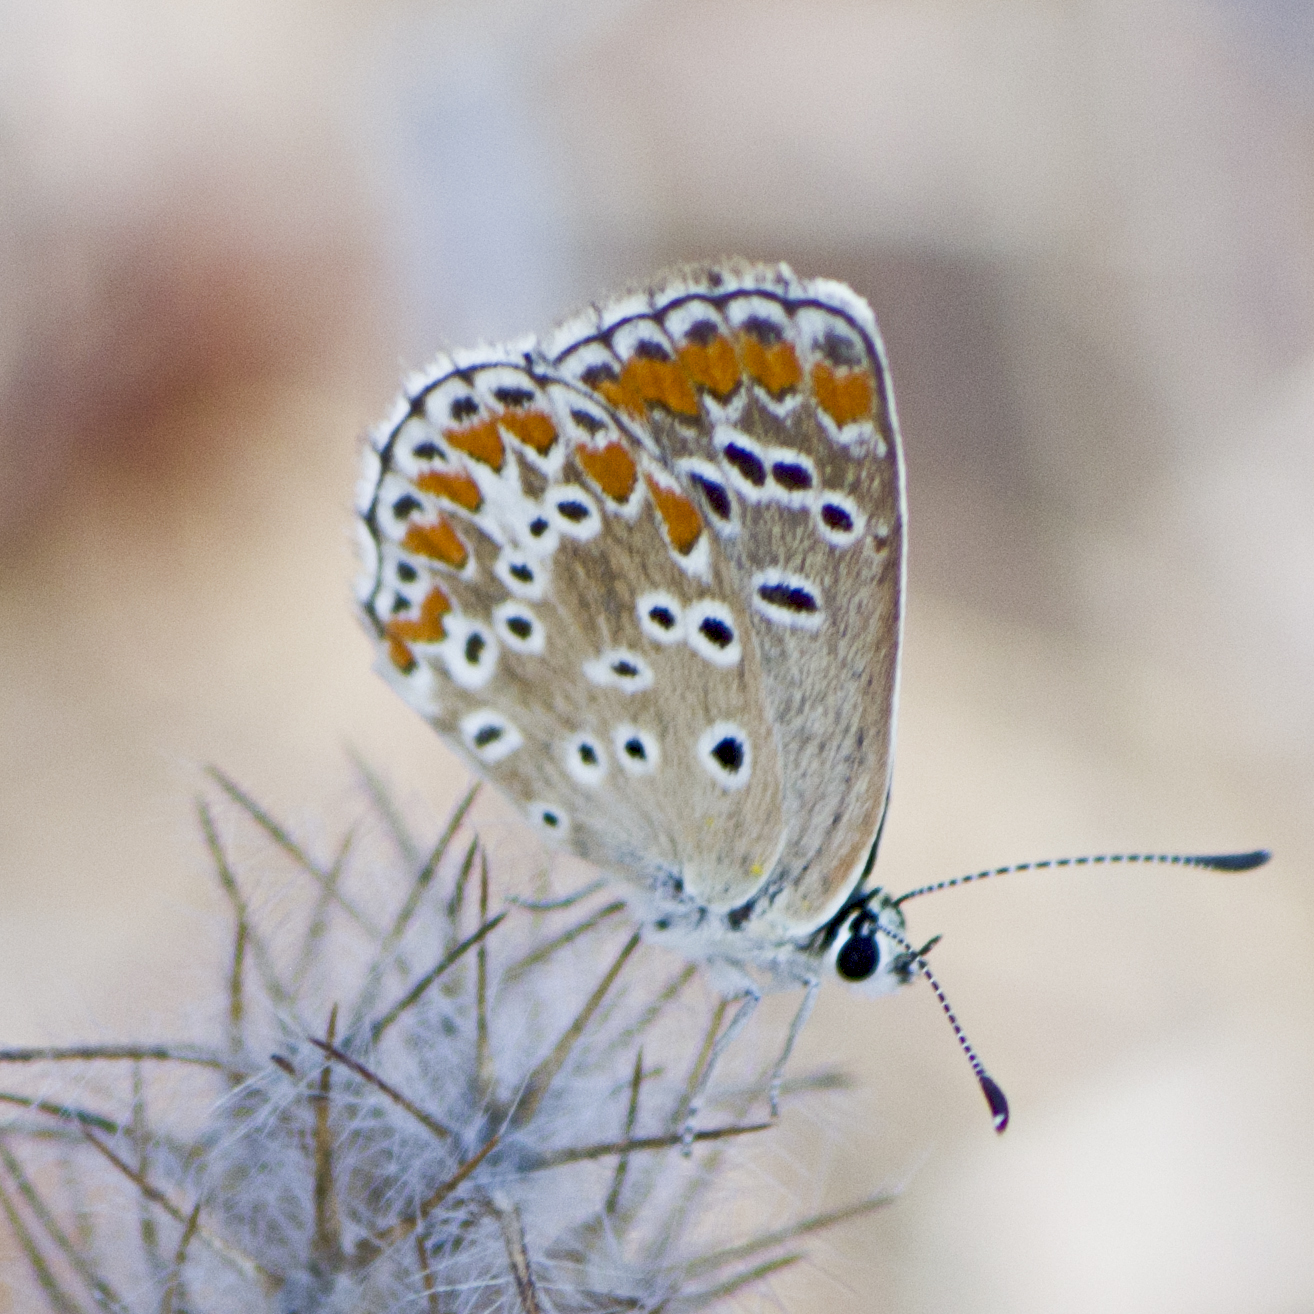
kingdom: Animalia
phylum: Arthropoda
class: Insecta
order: Lepidoptera
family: Lycaenidae
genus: Aricia
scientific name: Aricia agestis
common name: Brown argus
